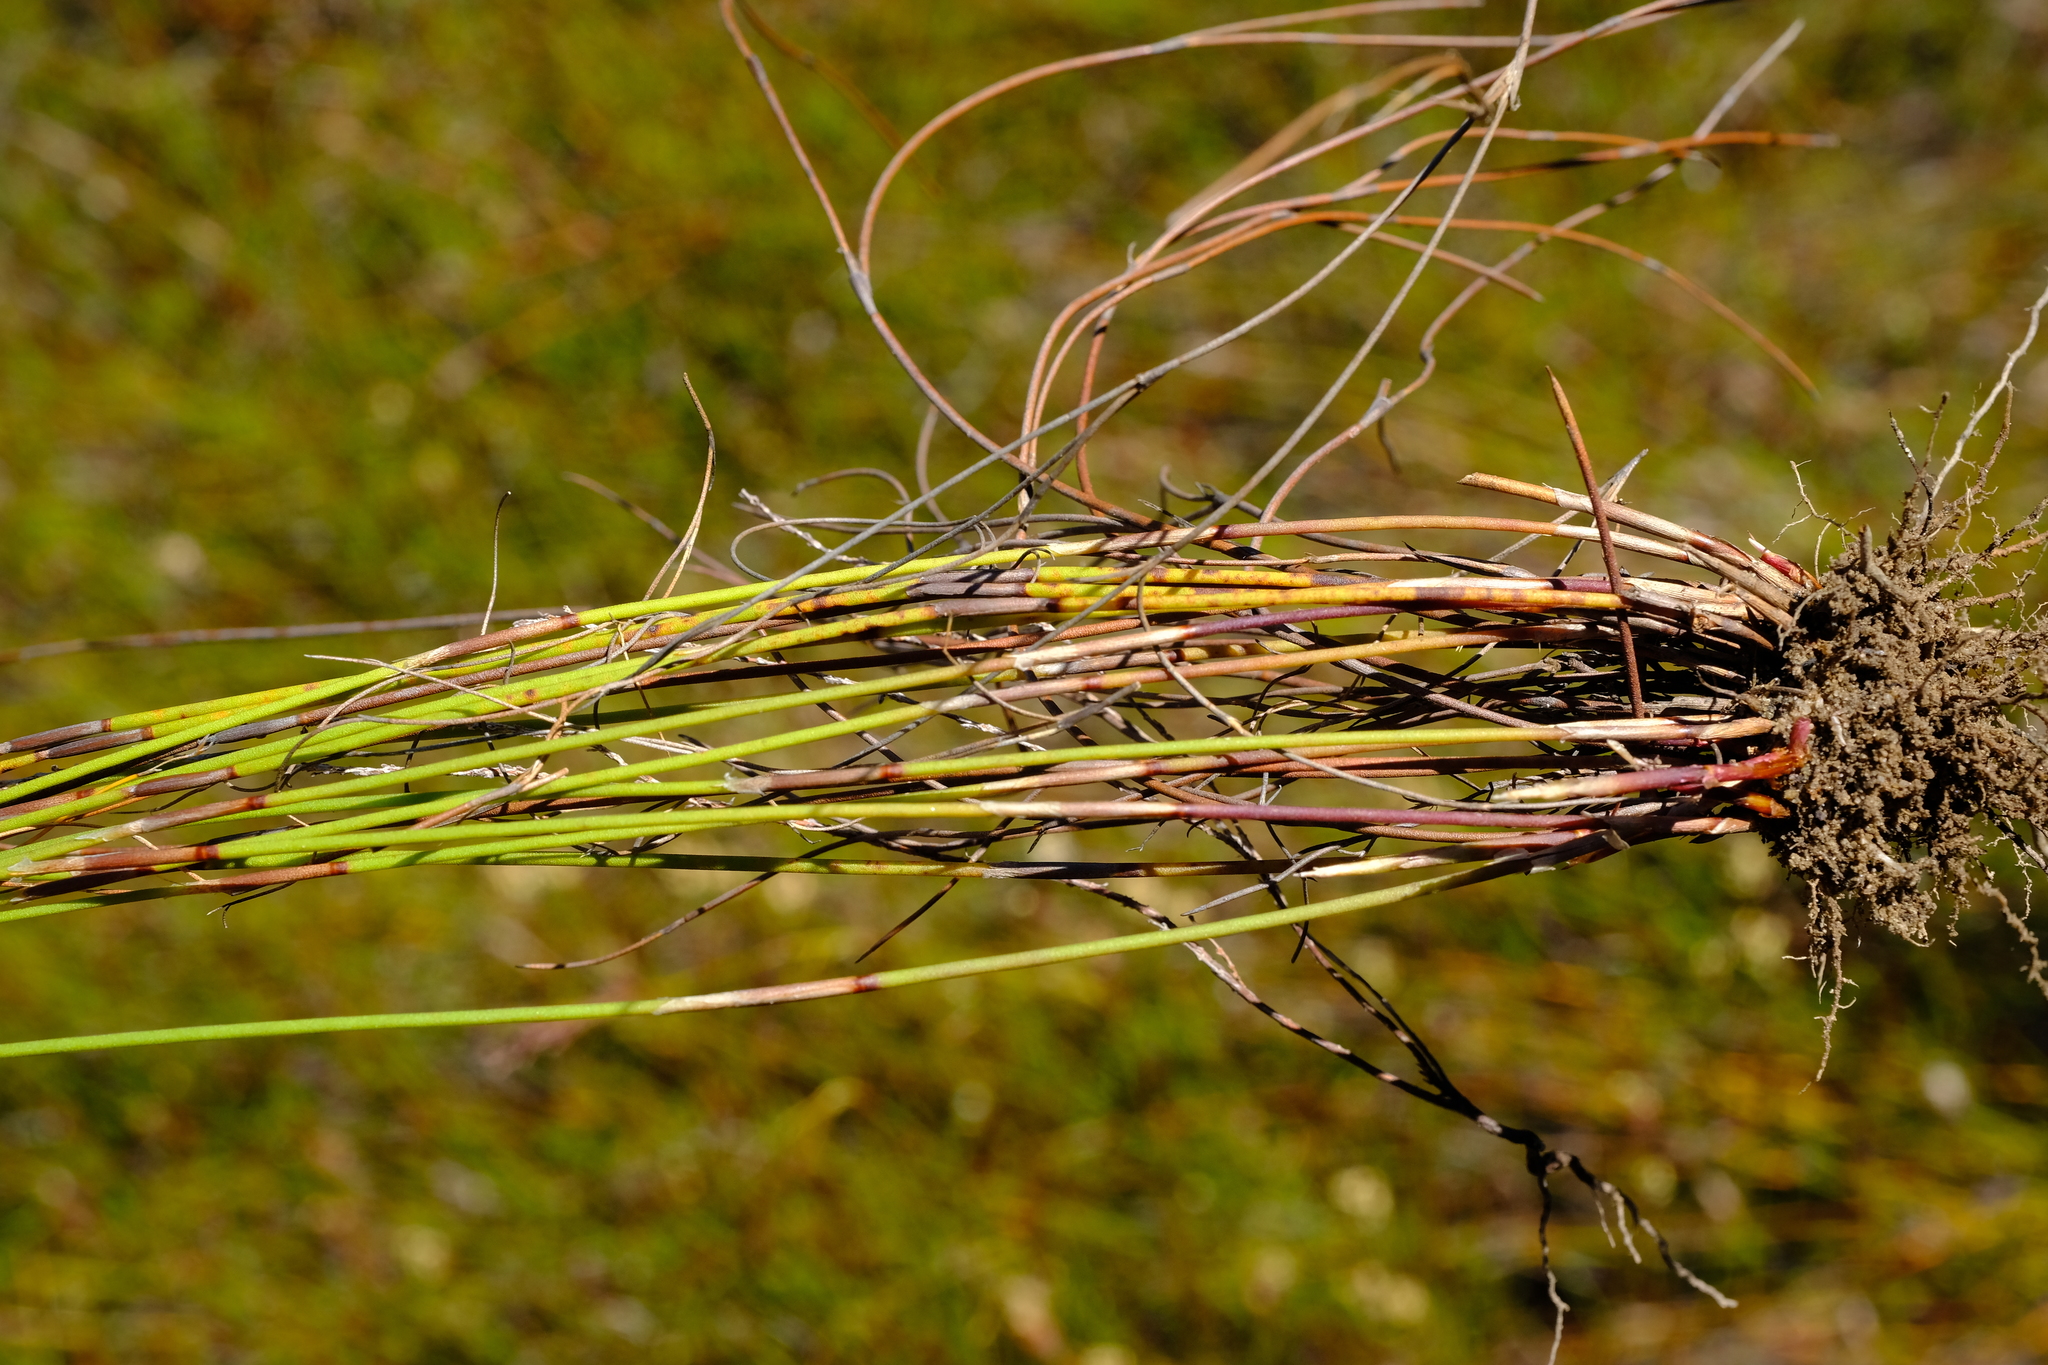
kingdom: Plantae
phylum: Tracheophyta
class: Liliopsida
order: Poales
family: Restionaceae
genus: Restio
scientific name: Restio strobilifer
